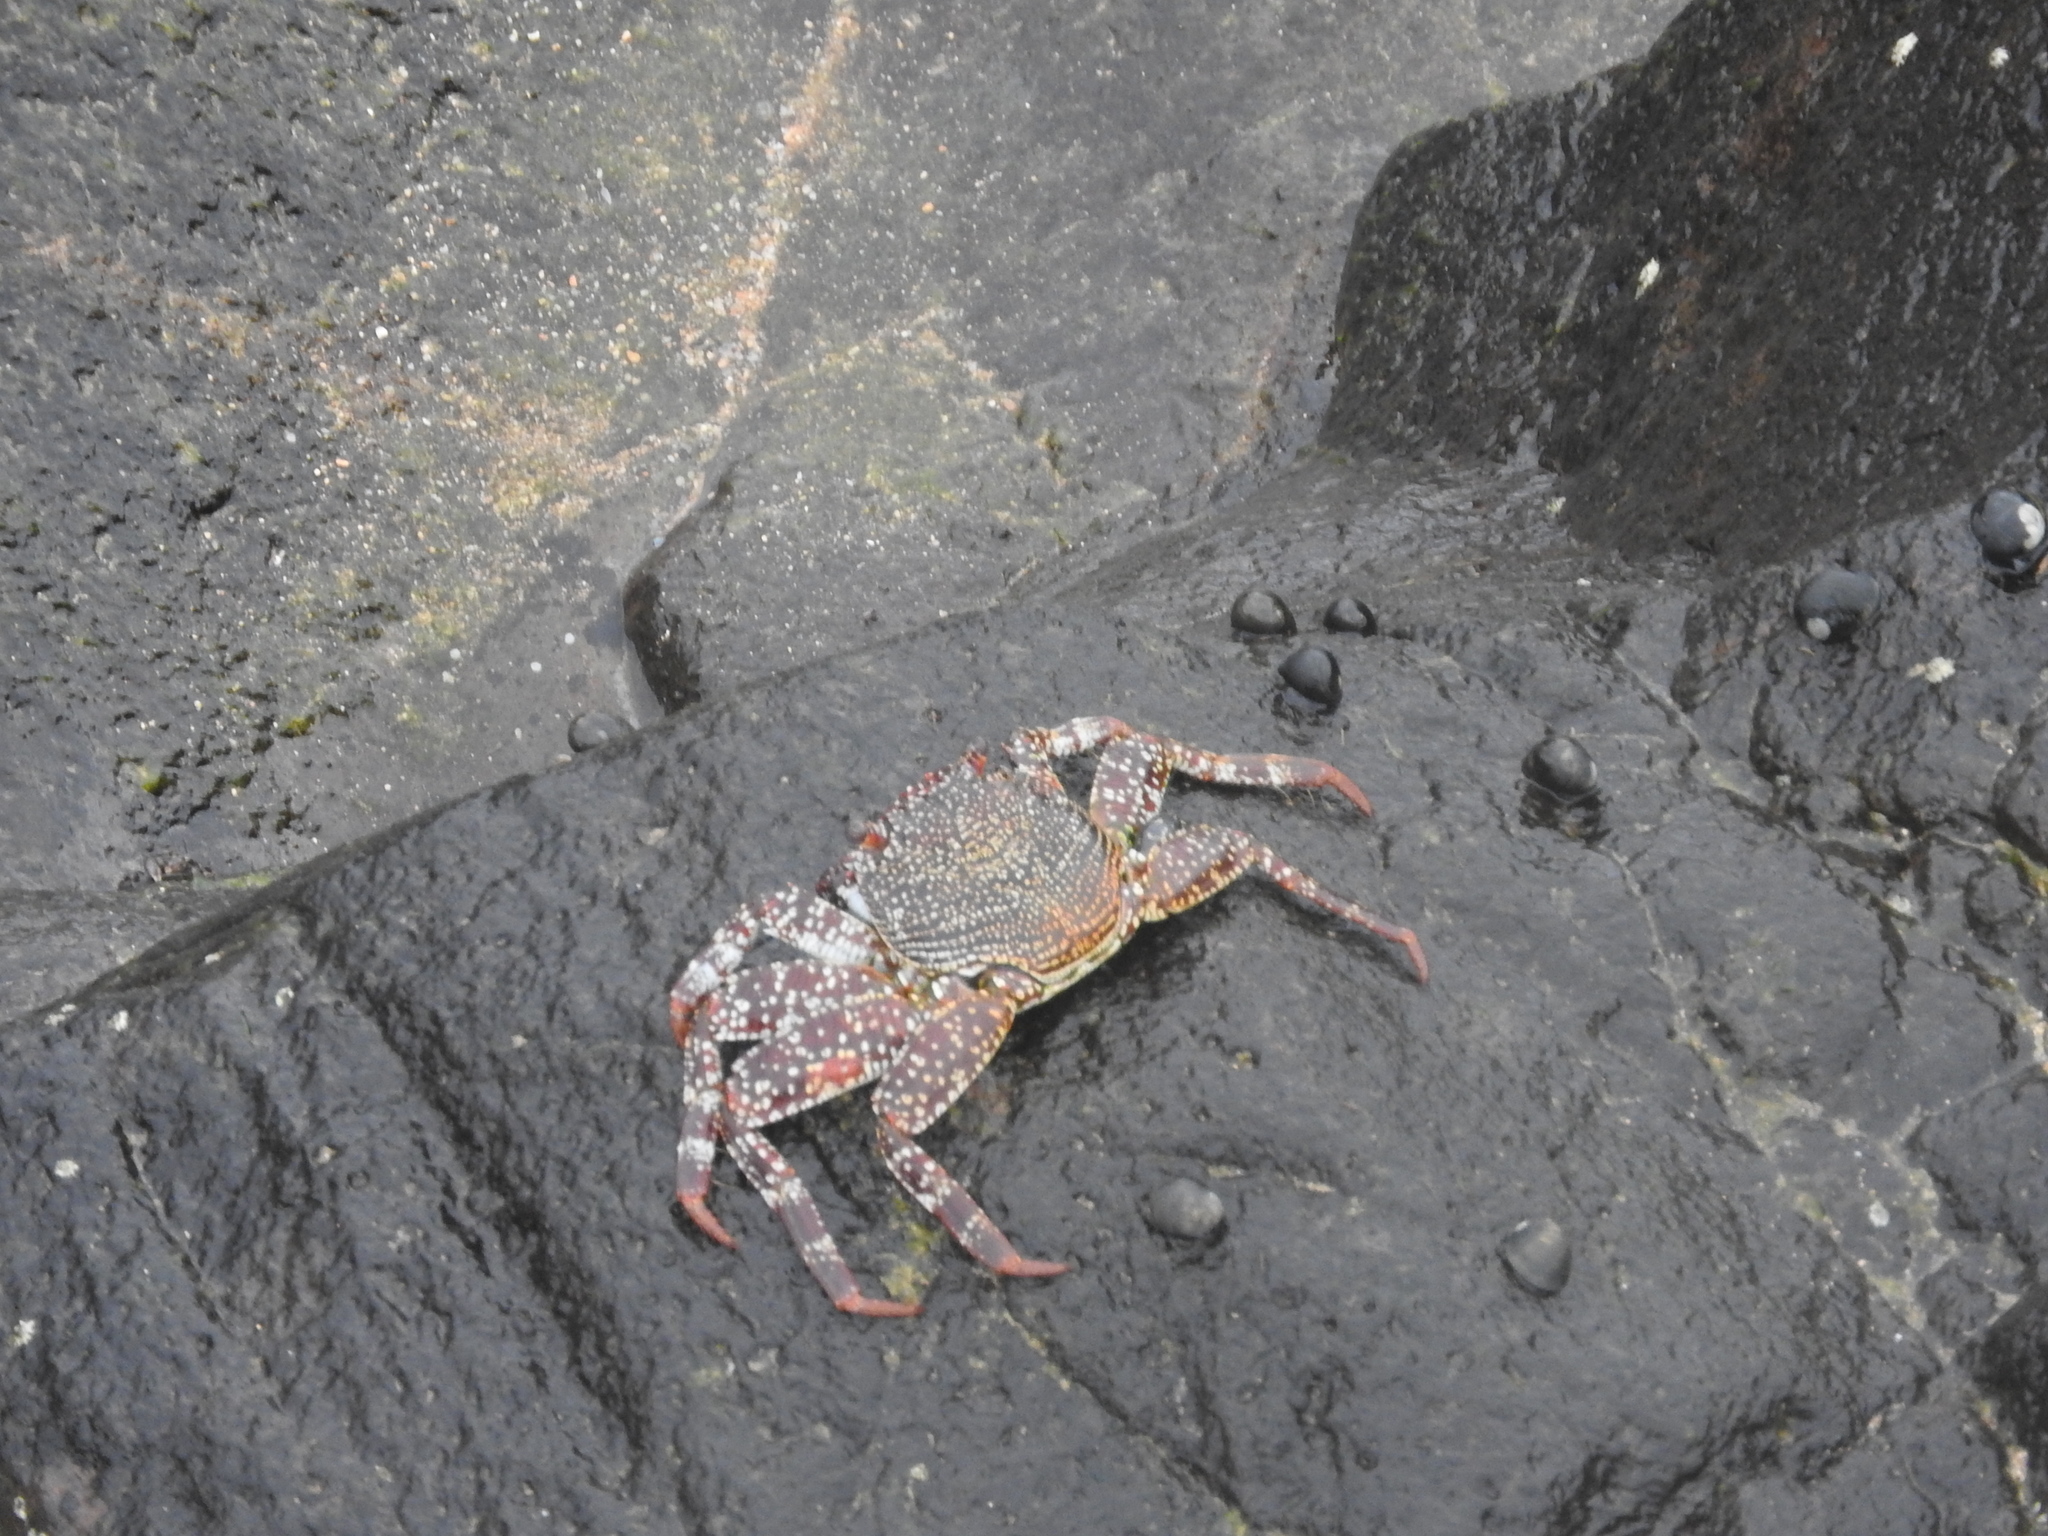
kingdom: Animalia
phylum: Arthropoda
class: Malacostraca
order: Decapoda
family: Grapsidae
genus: Grapsus
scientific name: Grapsus adscensionis
